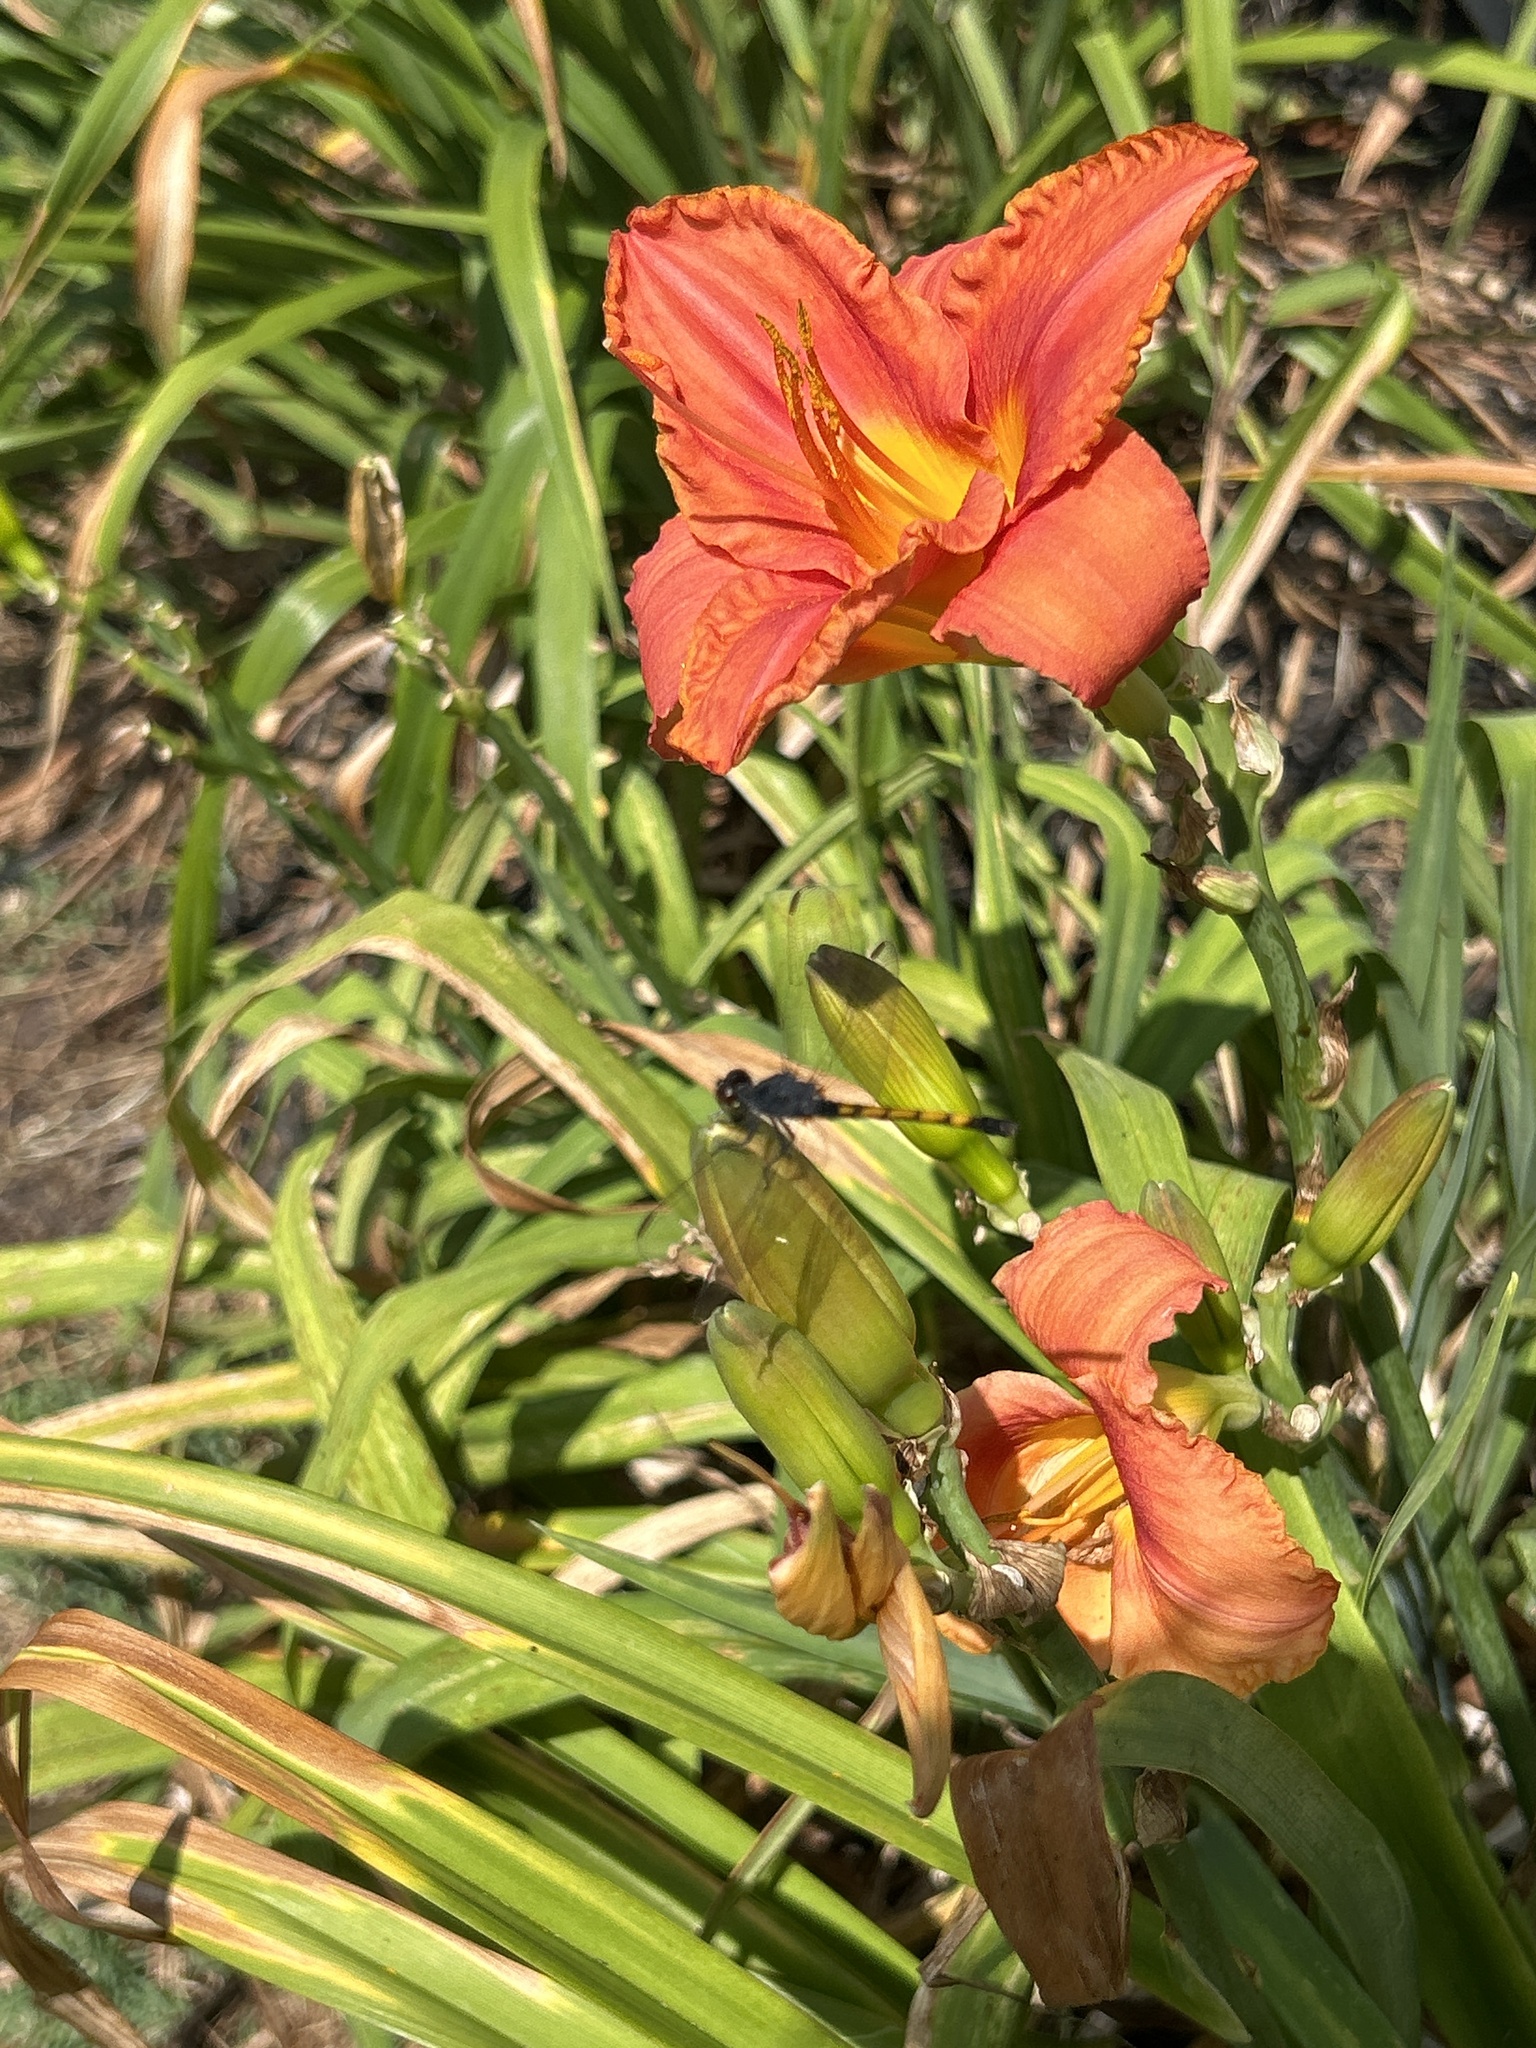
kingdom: Animalia
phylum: Arthropoda
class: Insecta
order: Odonata
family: Libellulidae
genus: Erythrodiplax
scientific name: Erythrodiplax berenice
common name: Seaside dragonlet
